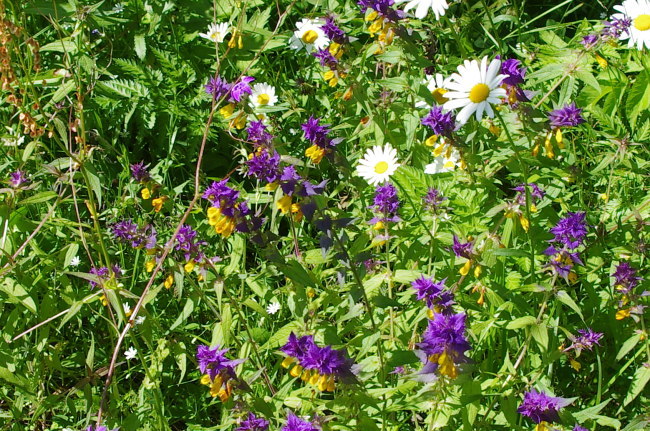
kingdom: Plantae
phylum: Tracheophyta
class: Magnoliopsida
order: Asterales
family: Asteraceae
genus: Leucanthemum
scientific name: Leucanthemum vulgare
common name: Oxeye daisy
